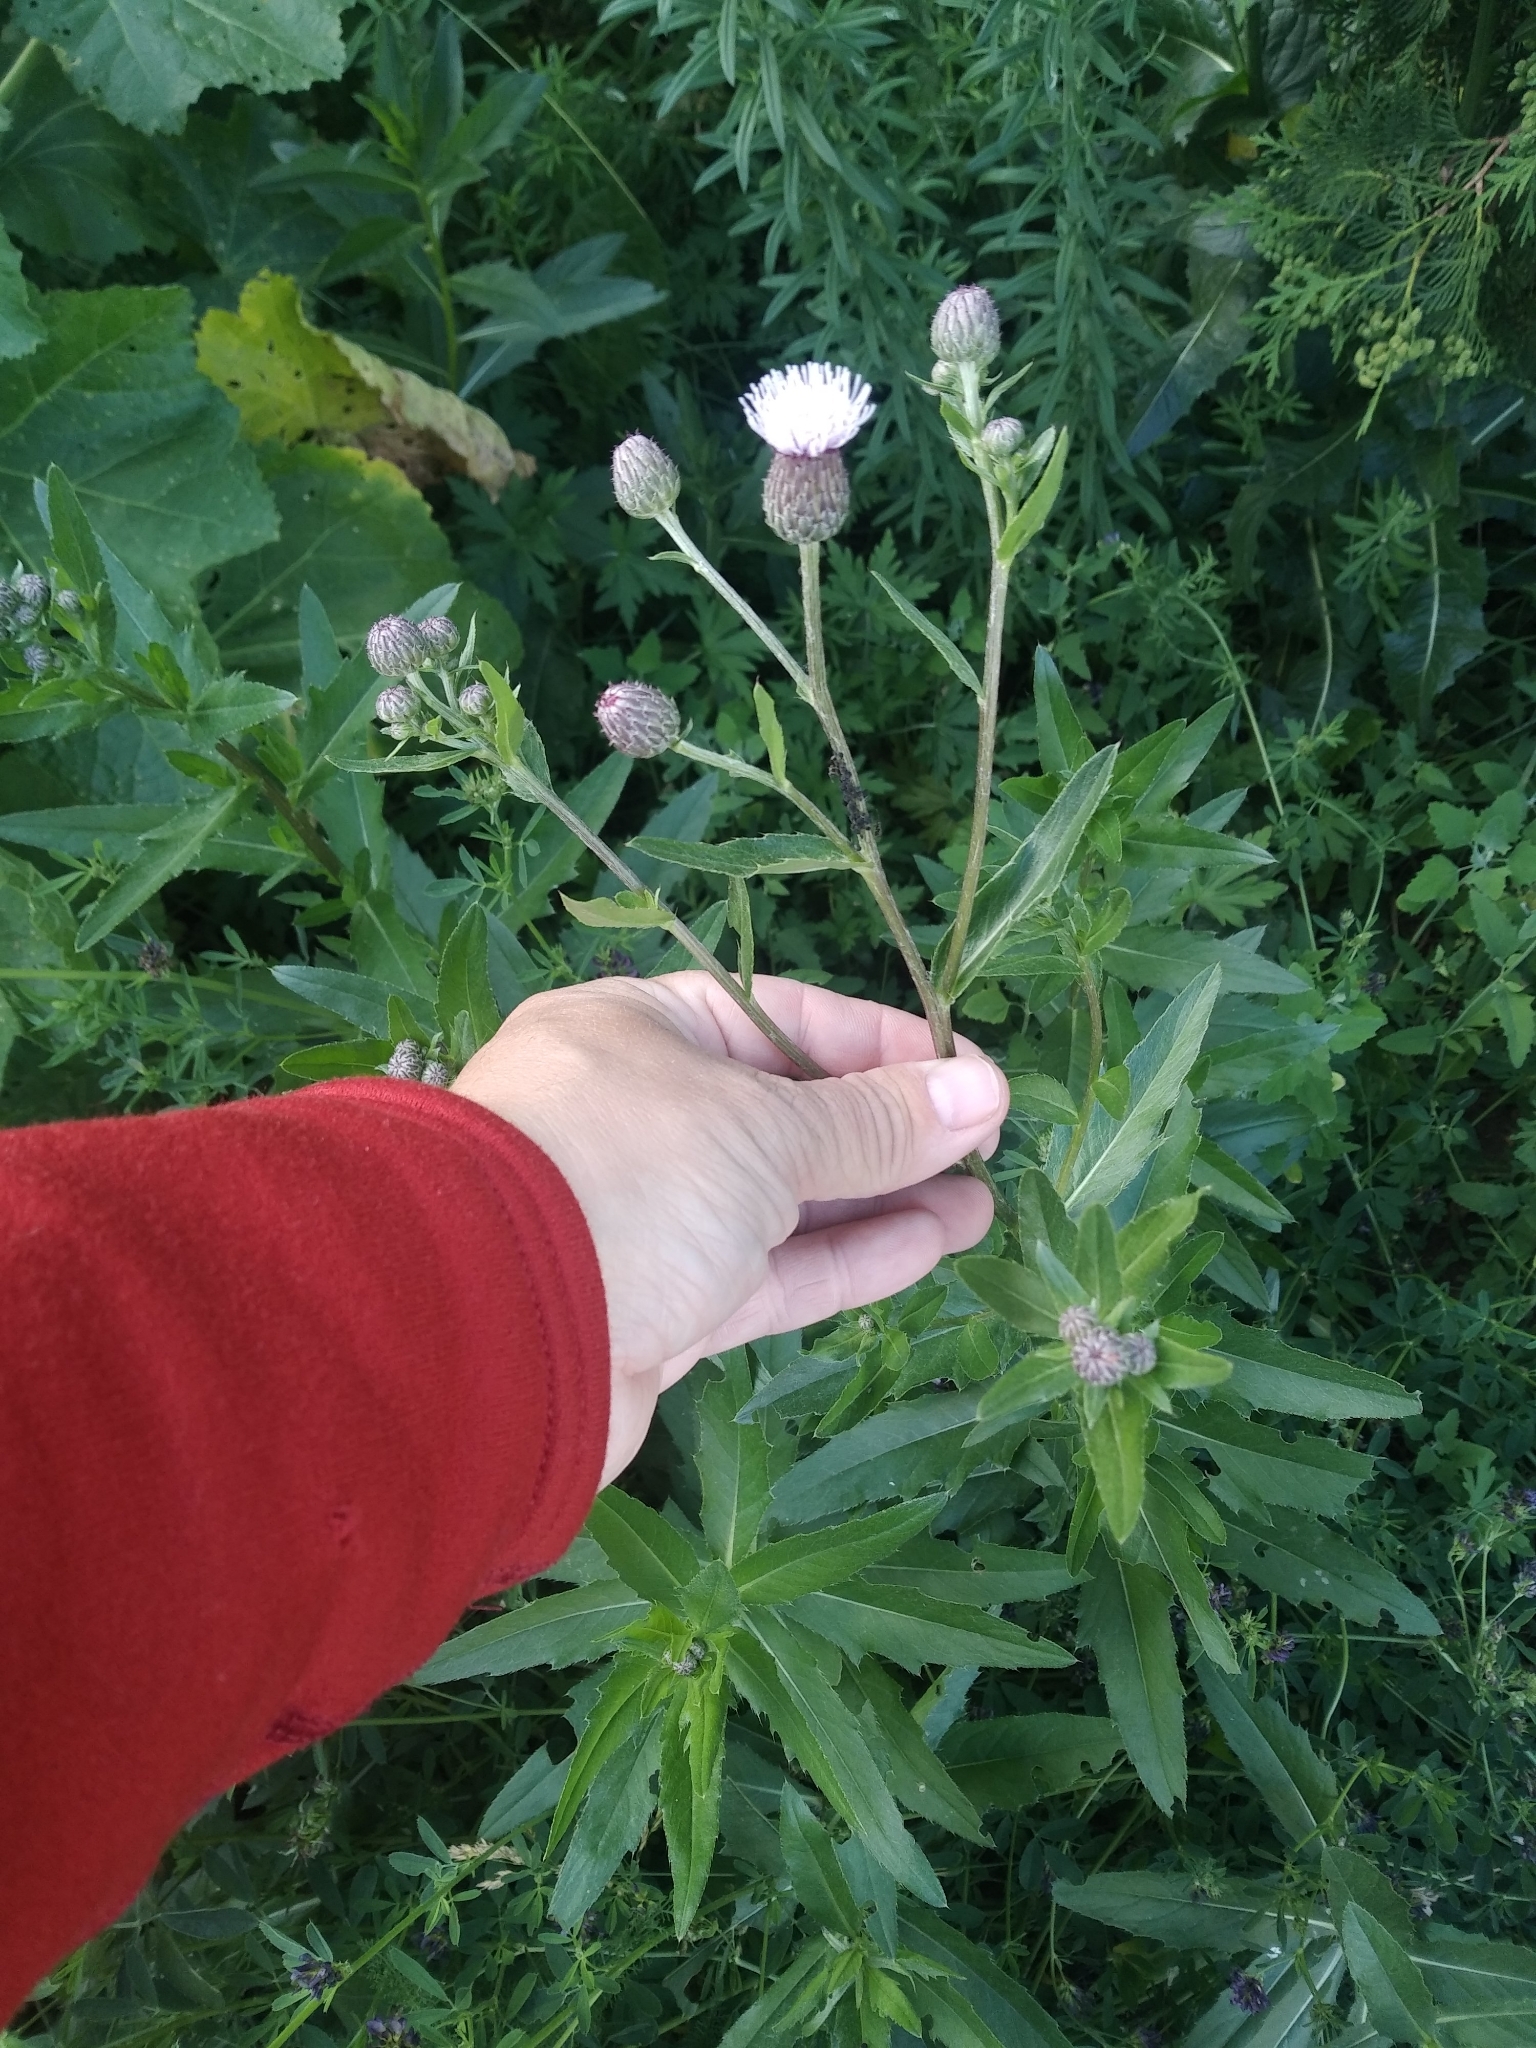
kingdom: Plantae
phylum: Tracheophyta
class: Magnoliopsida
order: Asterales
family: Asteraceae
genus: Cirsium
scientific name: Cirsium arvense
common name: Creeping thistle
